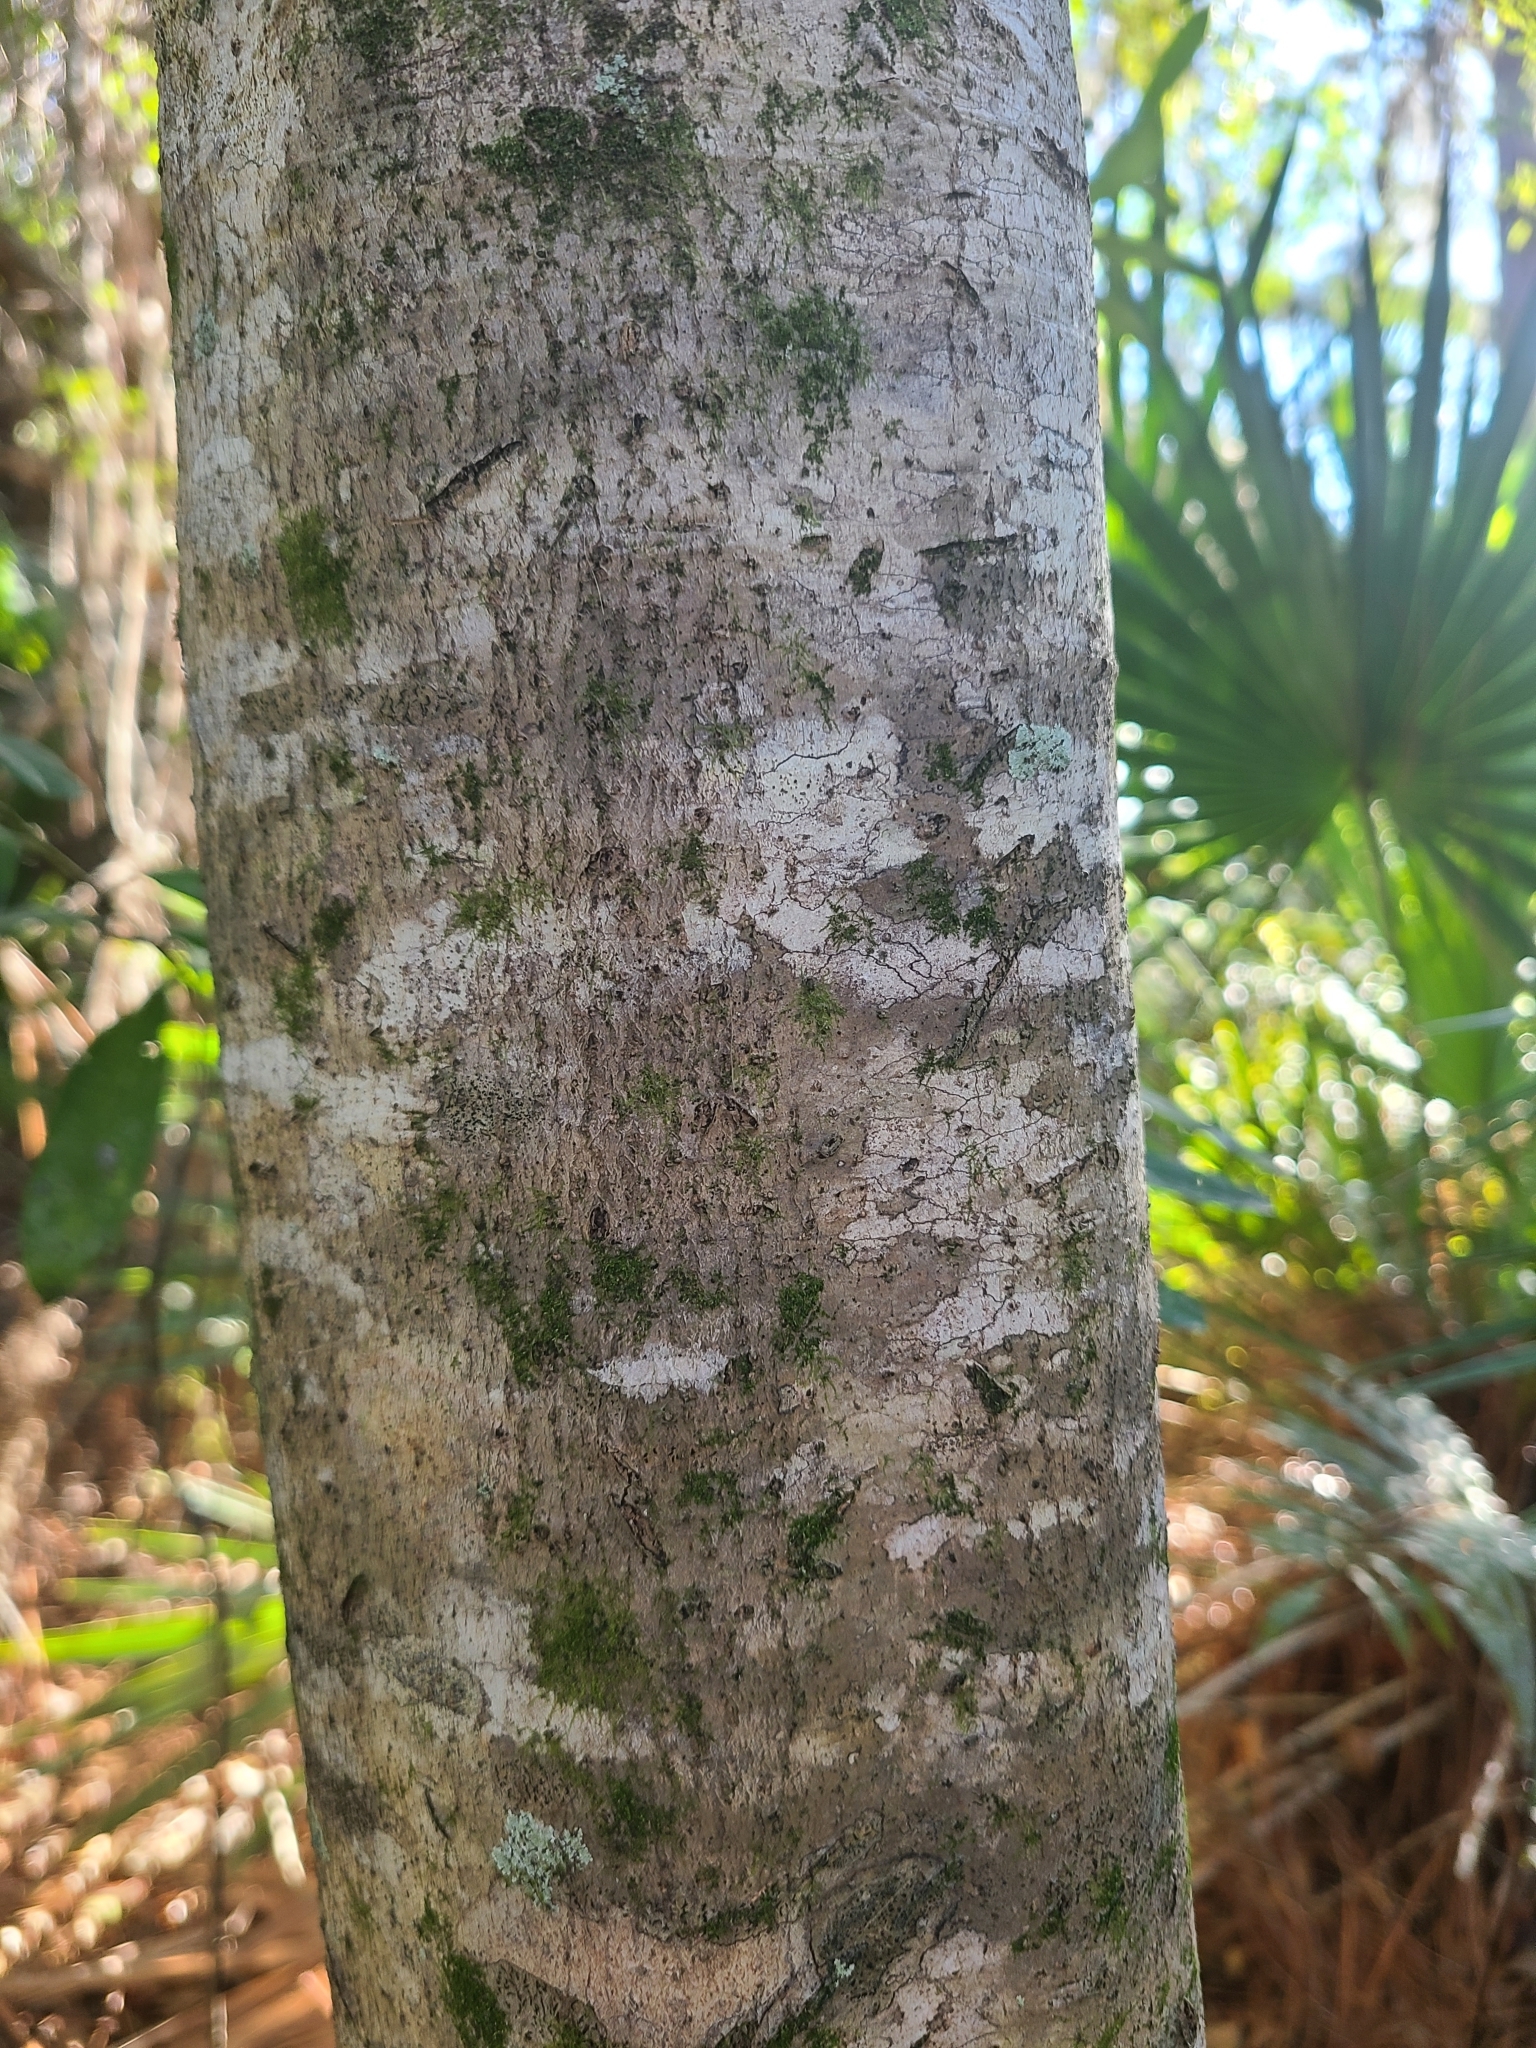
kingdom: Plantae
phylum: Tracheophyta
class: Magnoliopsida
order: Aquifoliales
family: Aquifoliaceae
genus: Ilex
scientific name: Ilex cassine
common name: Dahoon
